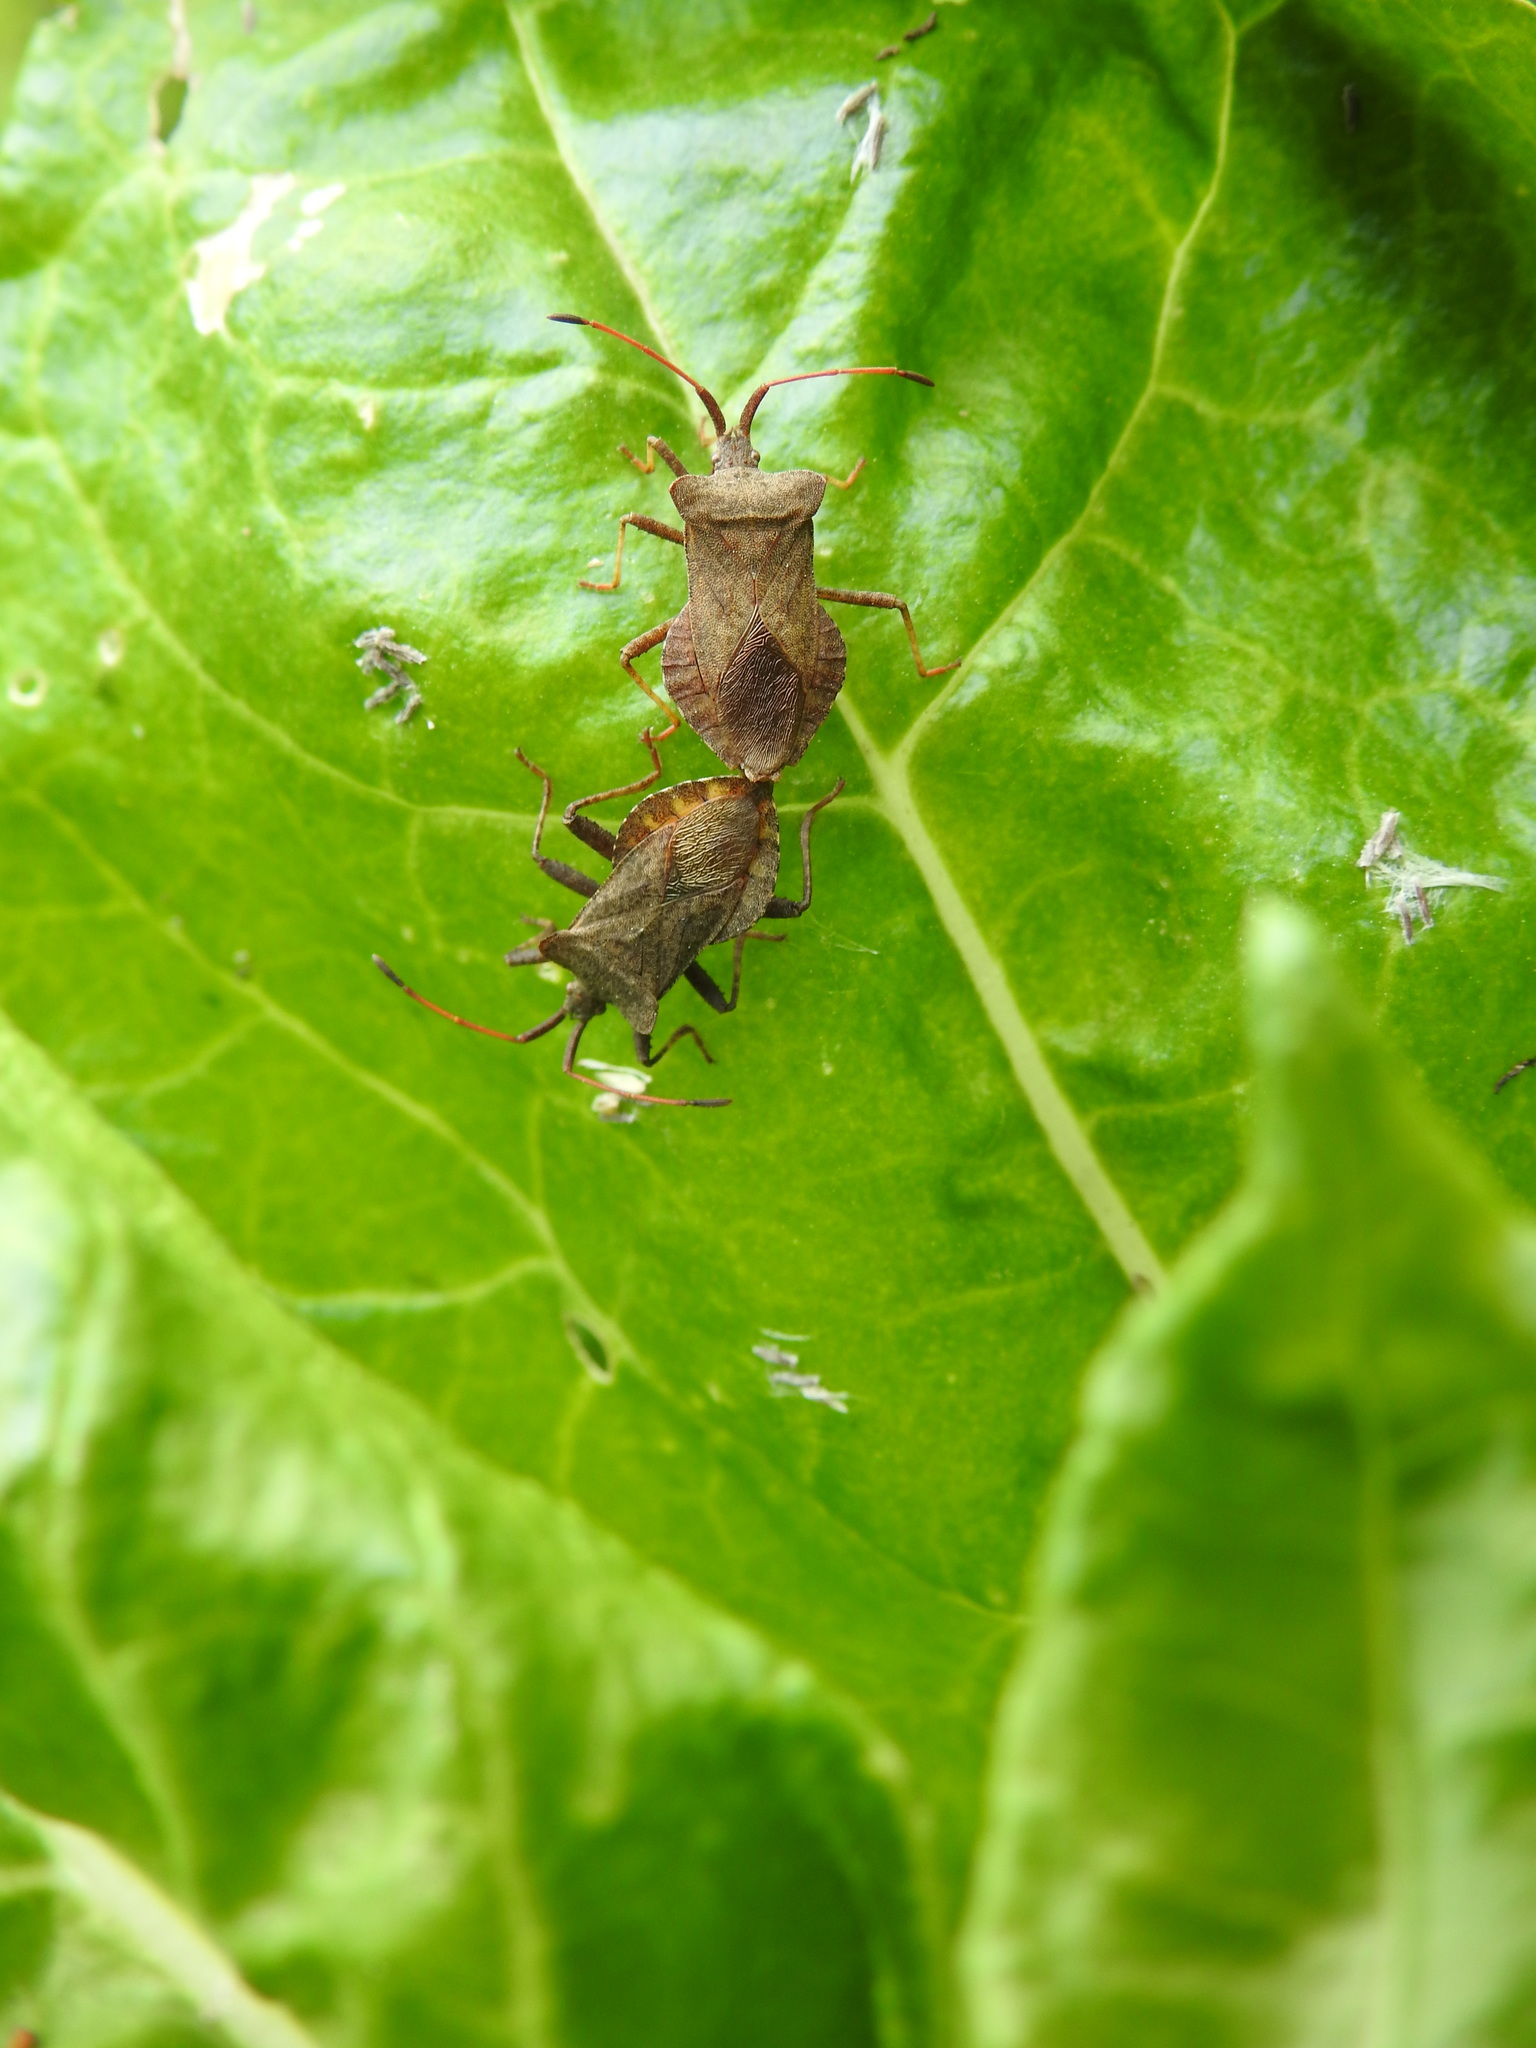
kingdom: Animalia
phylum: Arthropoda
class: Insecta
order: Hemiptera
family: Coreidae
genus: Coreus
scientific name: Coreus marginatus
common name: Dock bug
